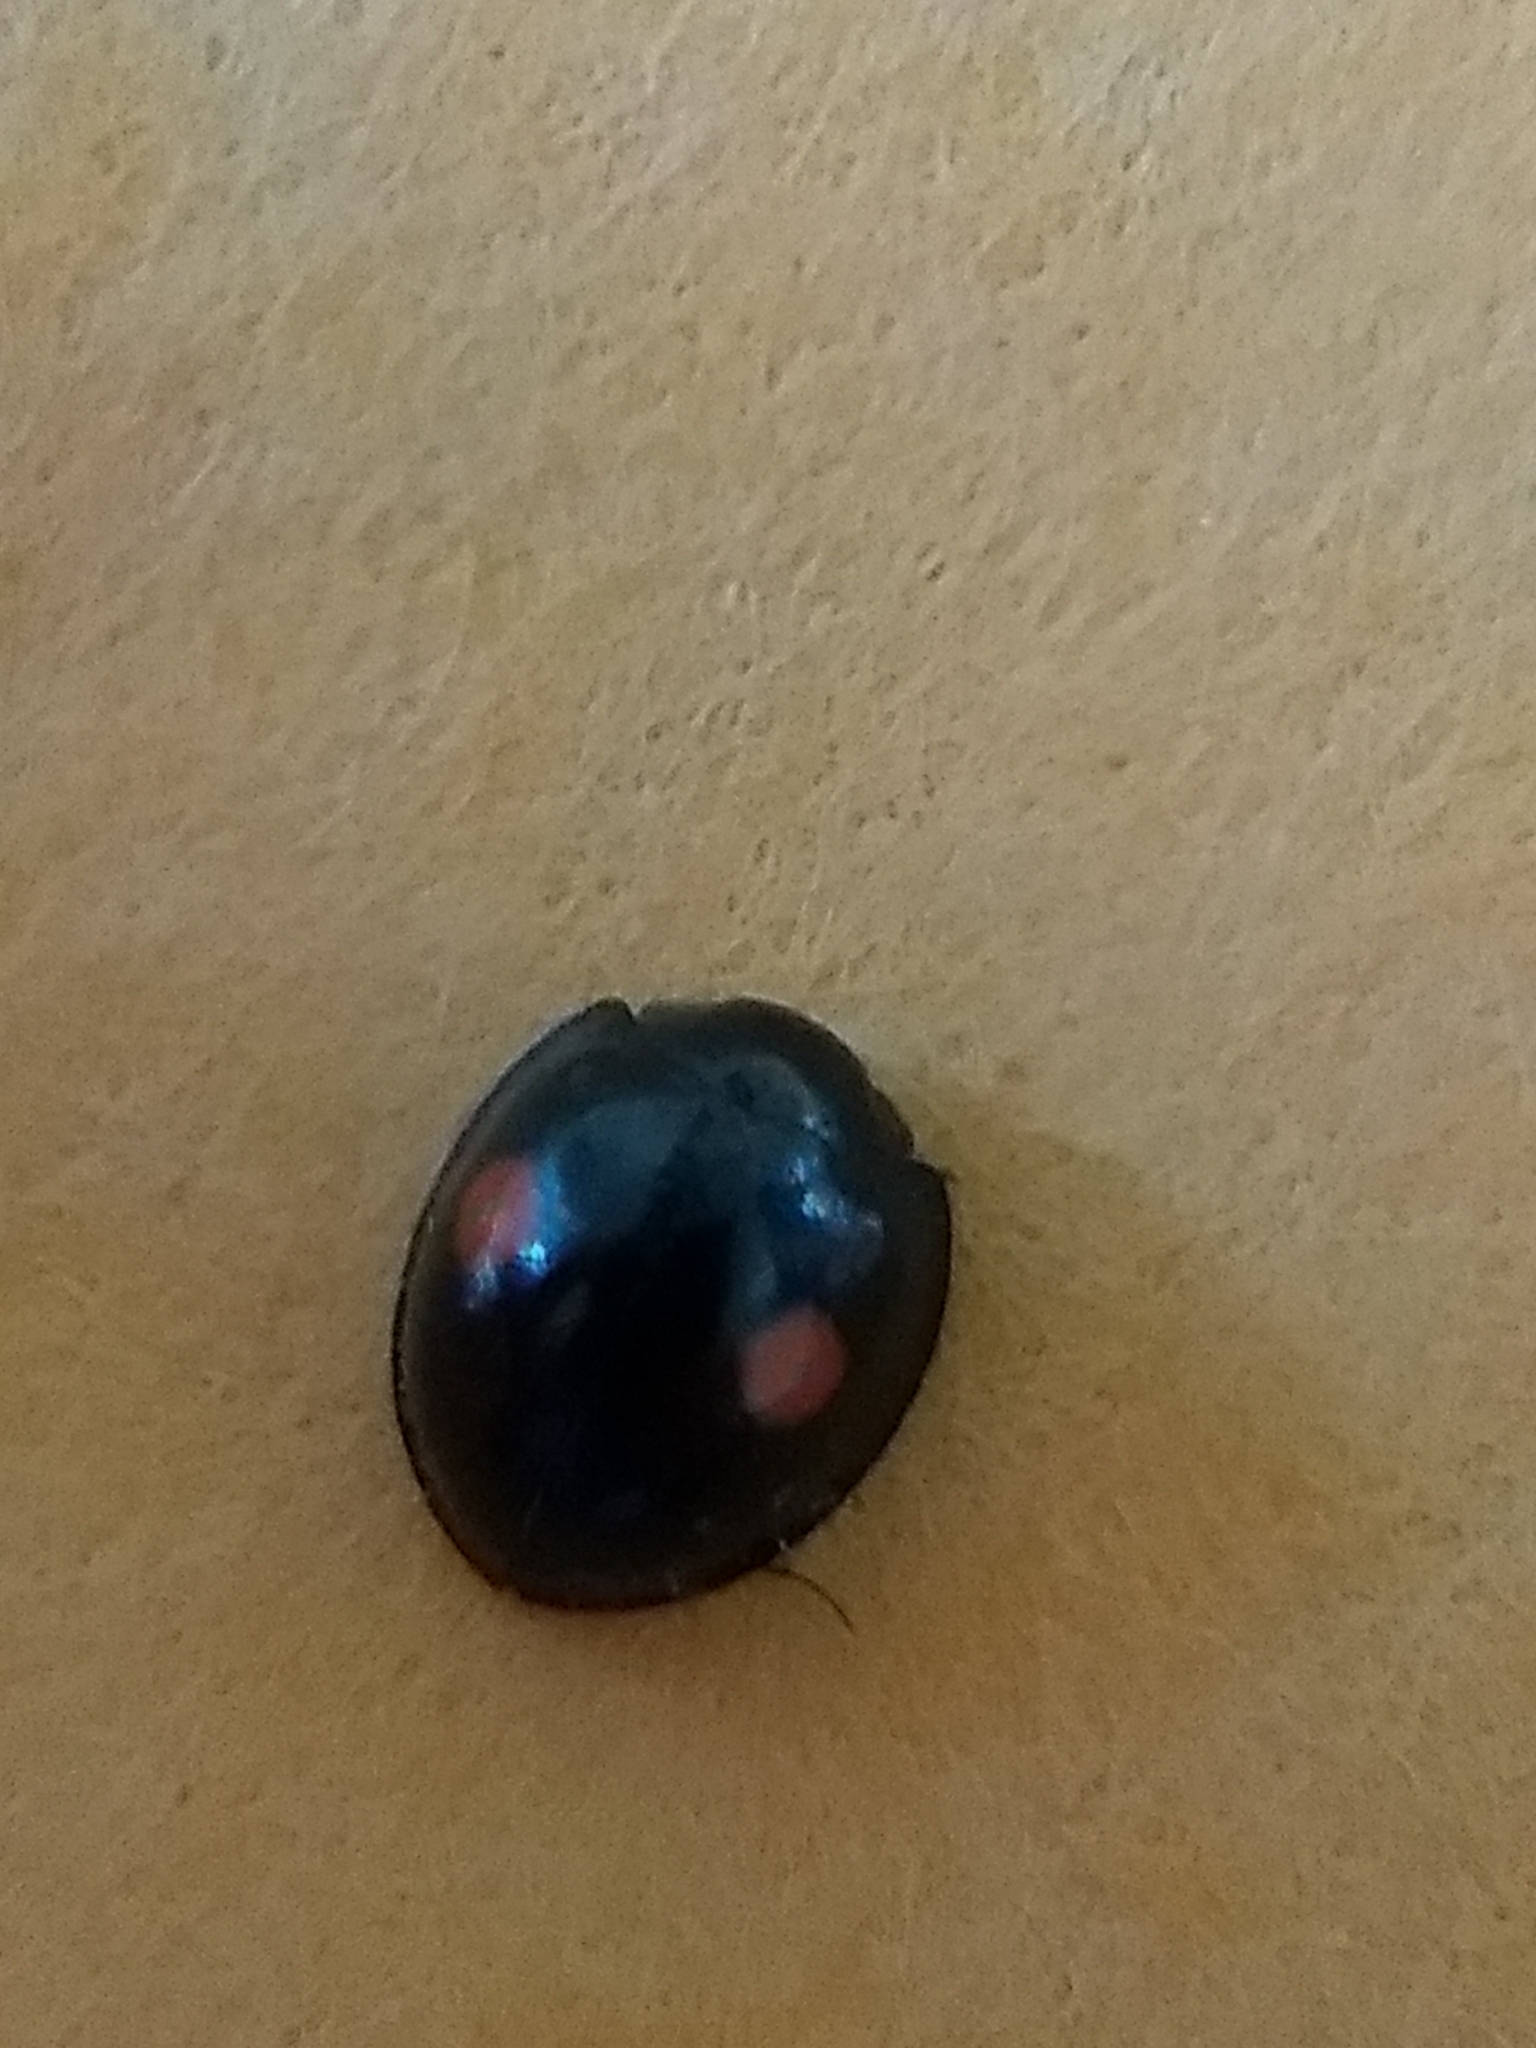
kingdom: Animalia
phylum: Arthropoda
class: Insecta
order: Coleoptera
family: Coccinellidae
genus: Chilocorus
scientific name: Chilocorus stigma
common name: Twicestabbed lady beetle
